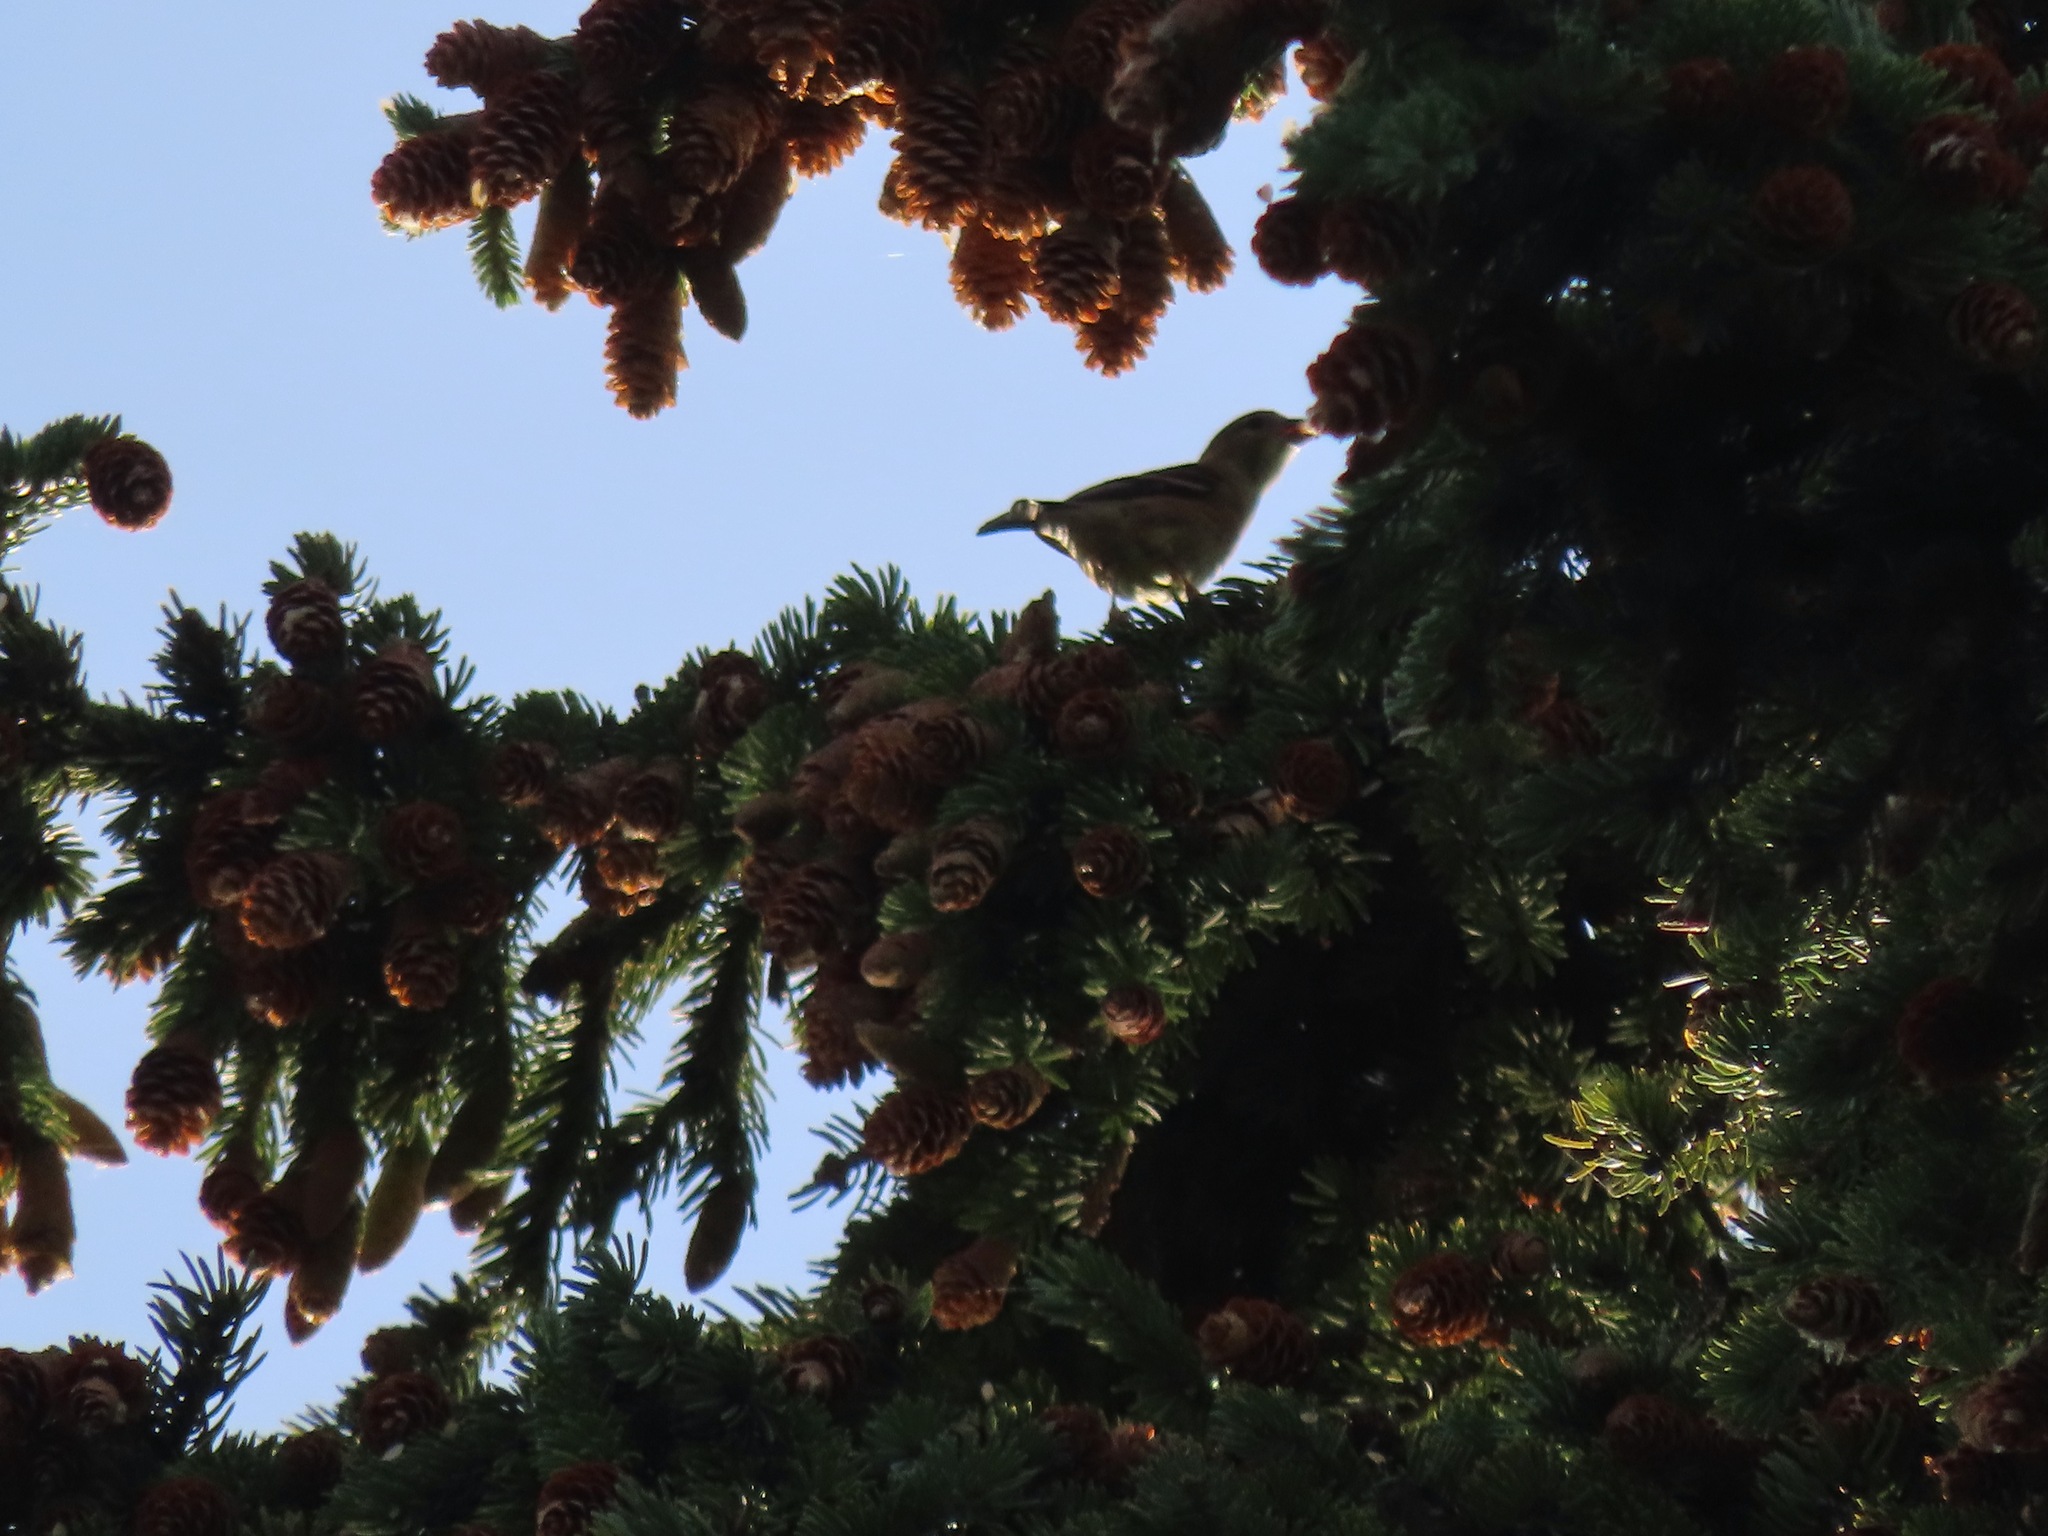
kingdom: Animalia
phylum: Chordata
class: Aves
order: Passeriformes
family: Fringillidae
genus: Spinus
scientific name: Spinus tristis
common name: American goldfinch
